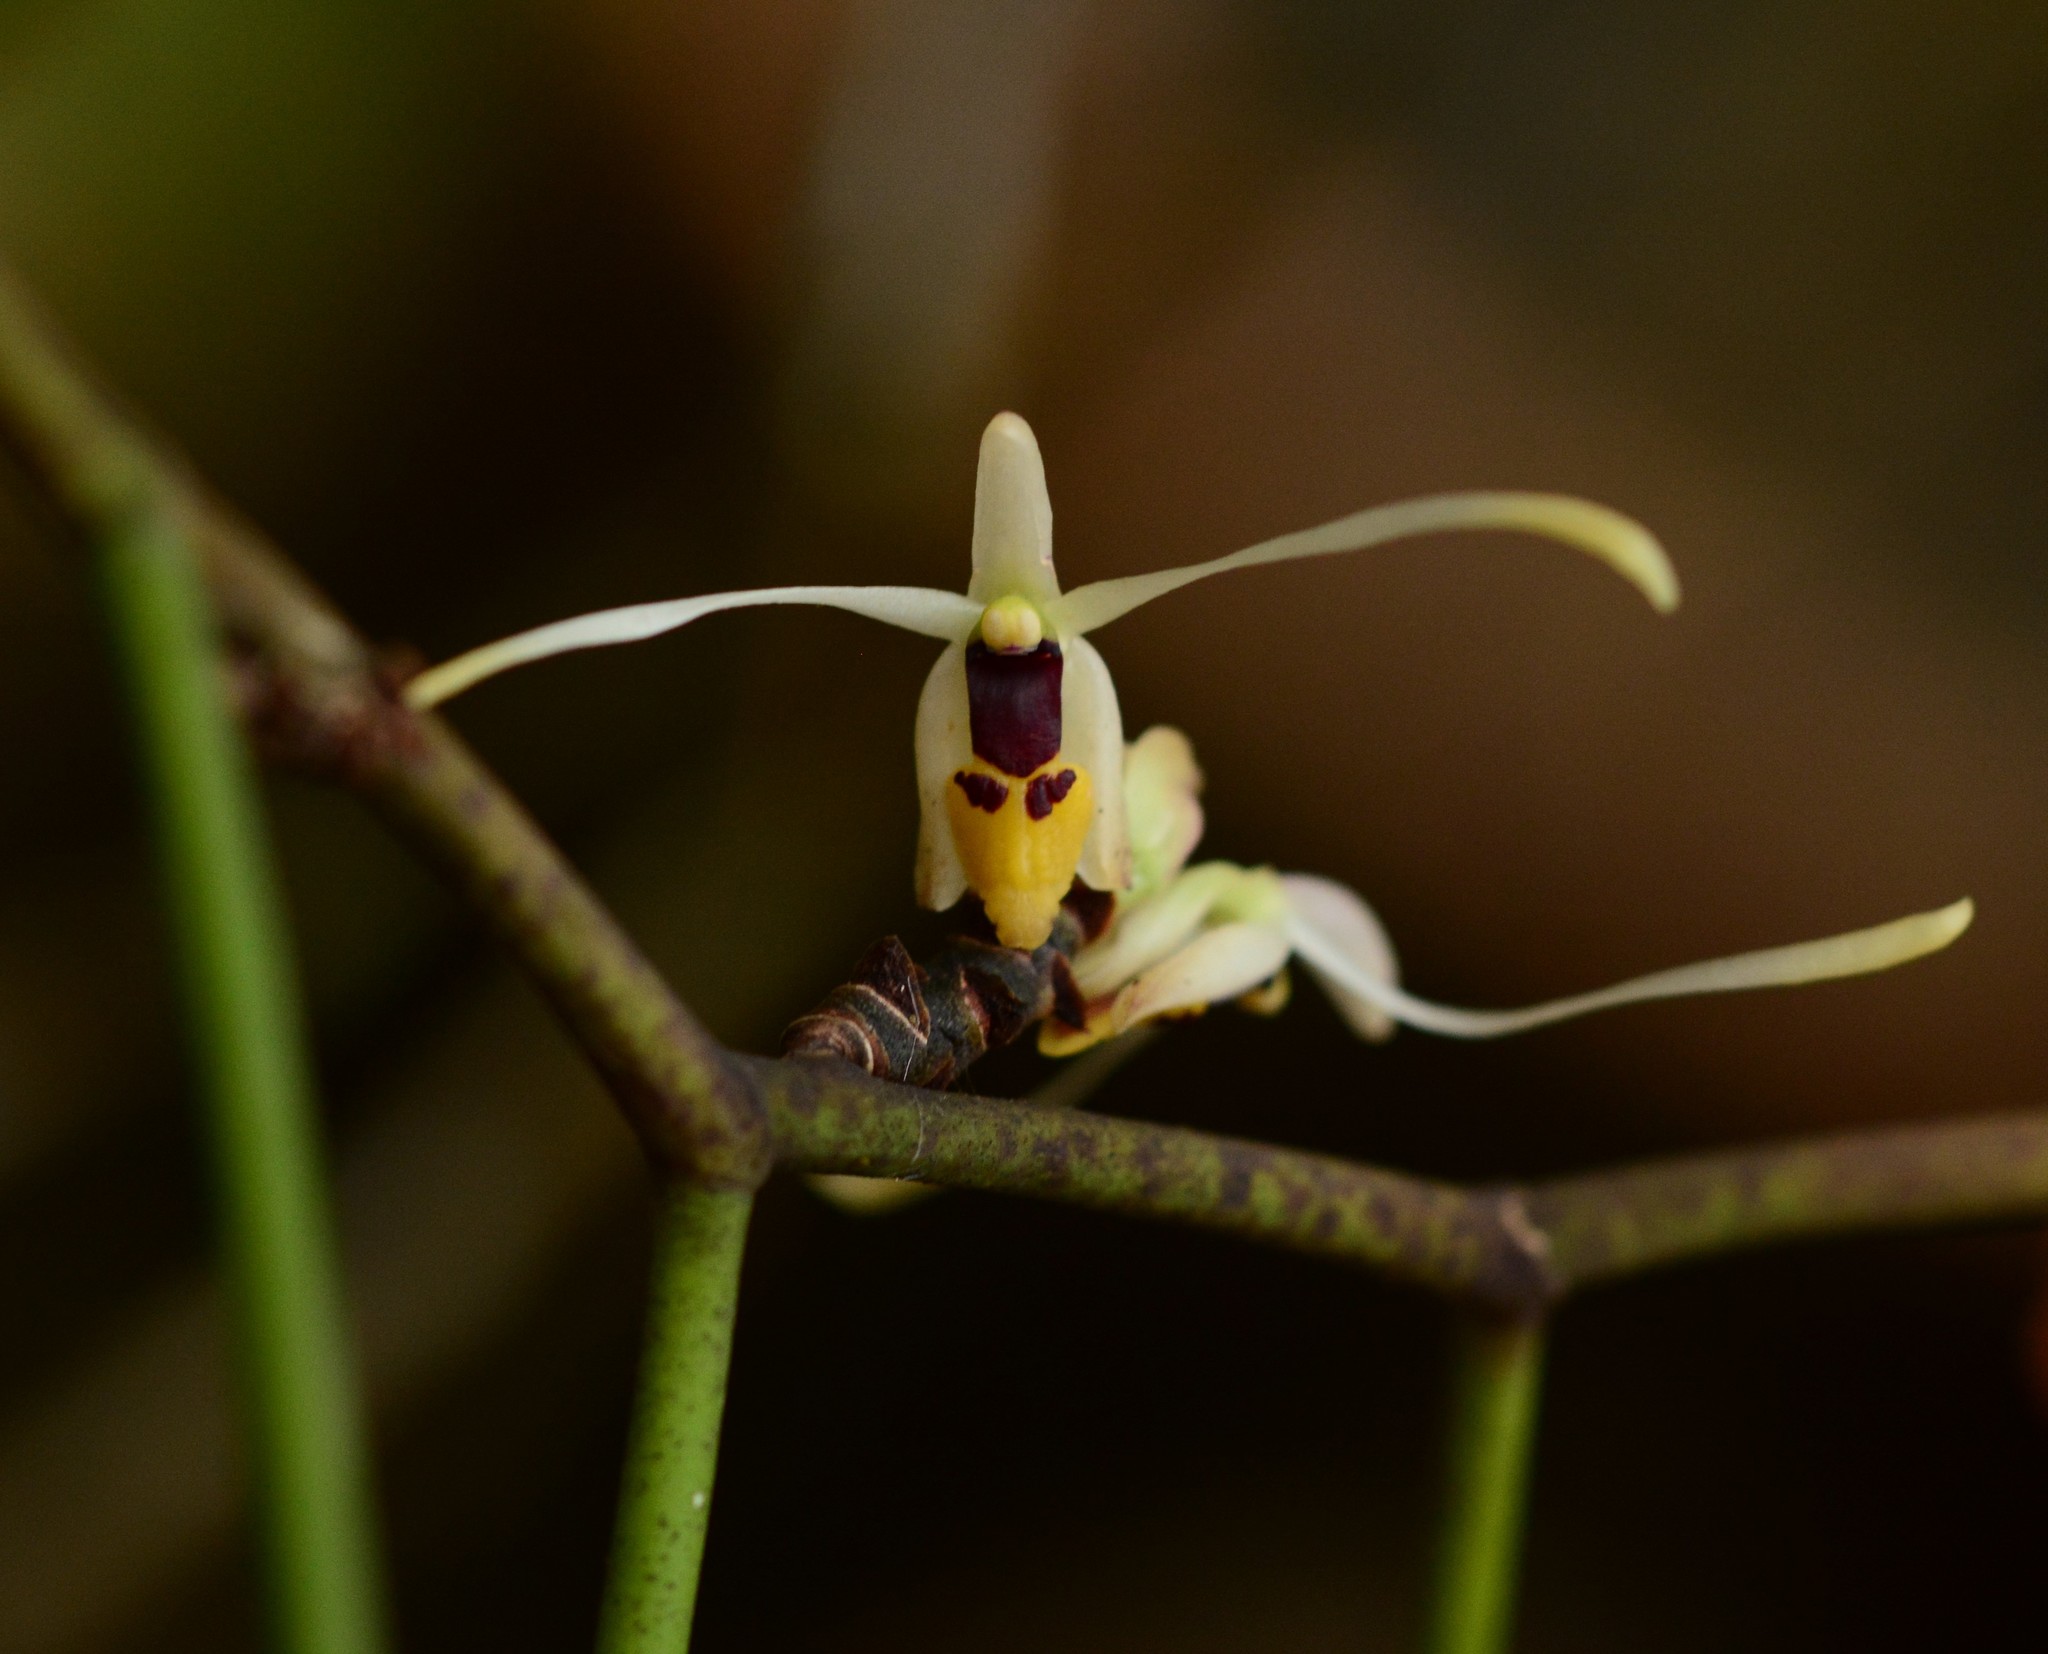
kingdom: Plantae
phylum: Tracheophyta
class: Liliopsida
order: Asparagales
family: Orchidaceae
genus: Luisia
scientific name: Luisia filiformis
